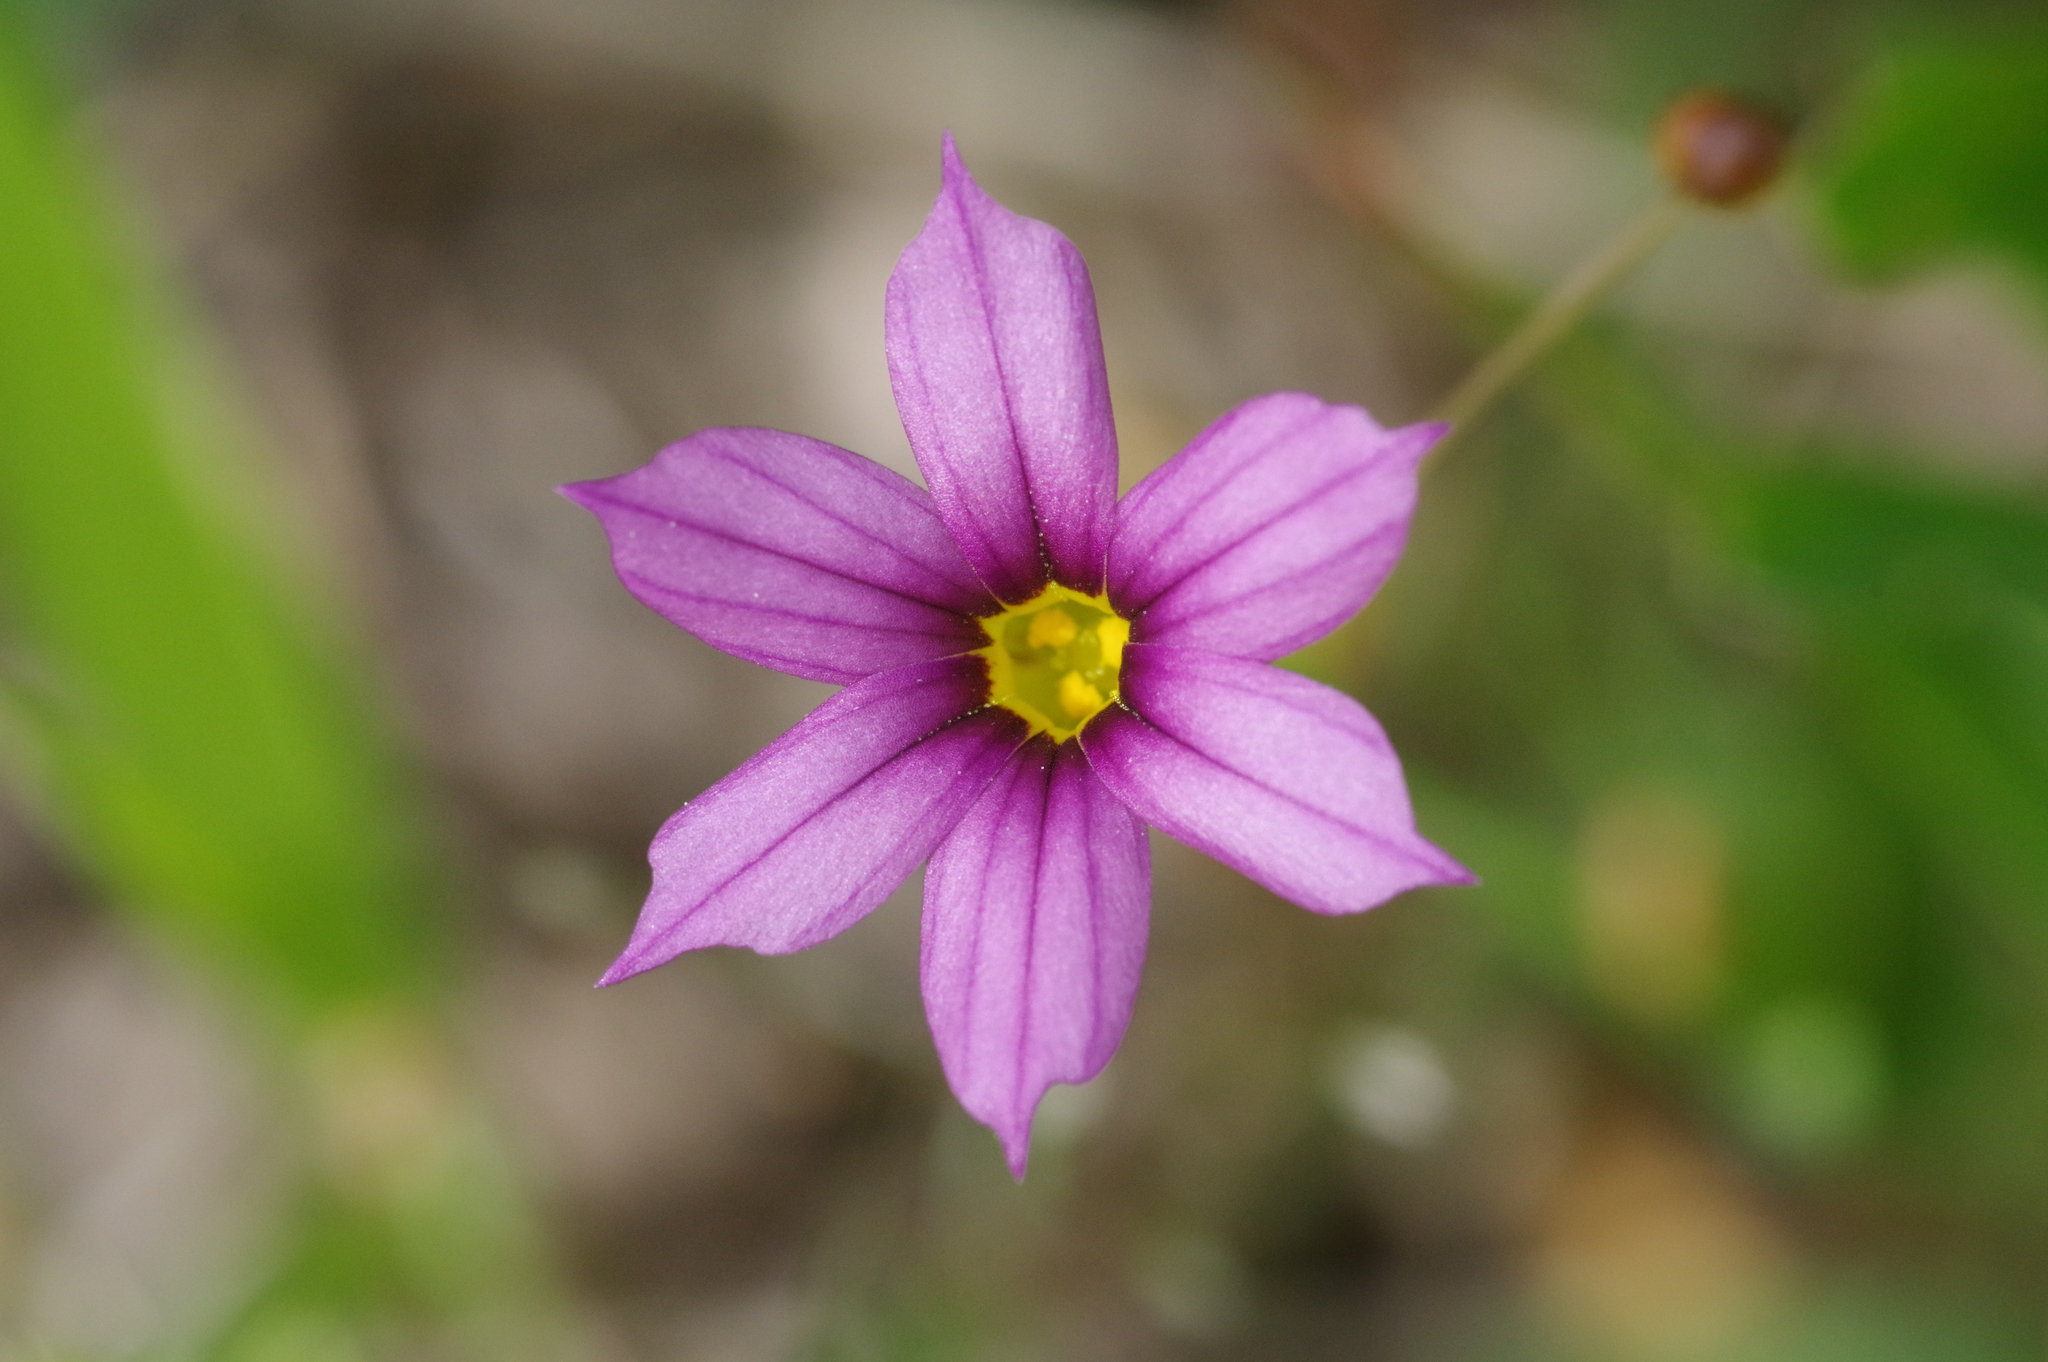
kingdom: Plantae
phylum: Tracheophyta
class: Liliopsida
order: Asparagales
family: Iridaceae
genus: Sisyrinchium
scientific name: Sisyrinchium micranthum
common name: Bermuda pigroot
